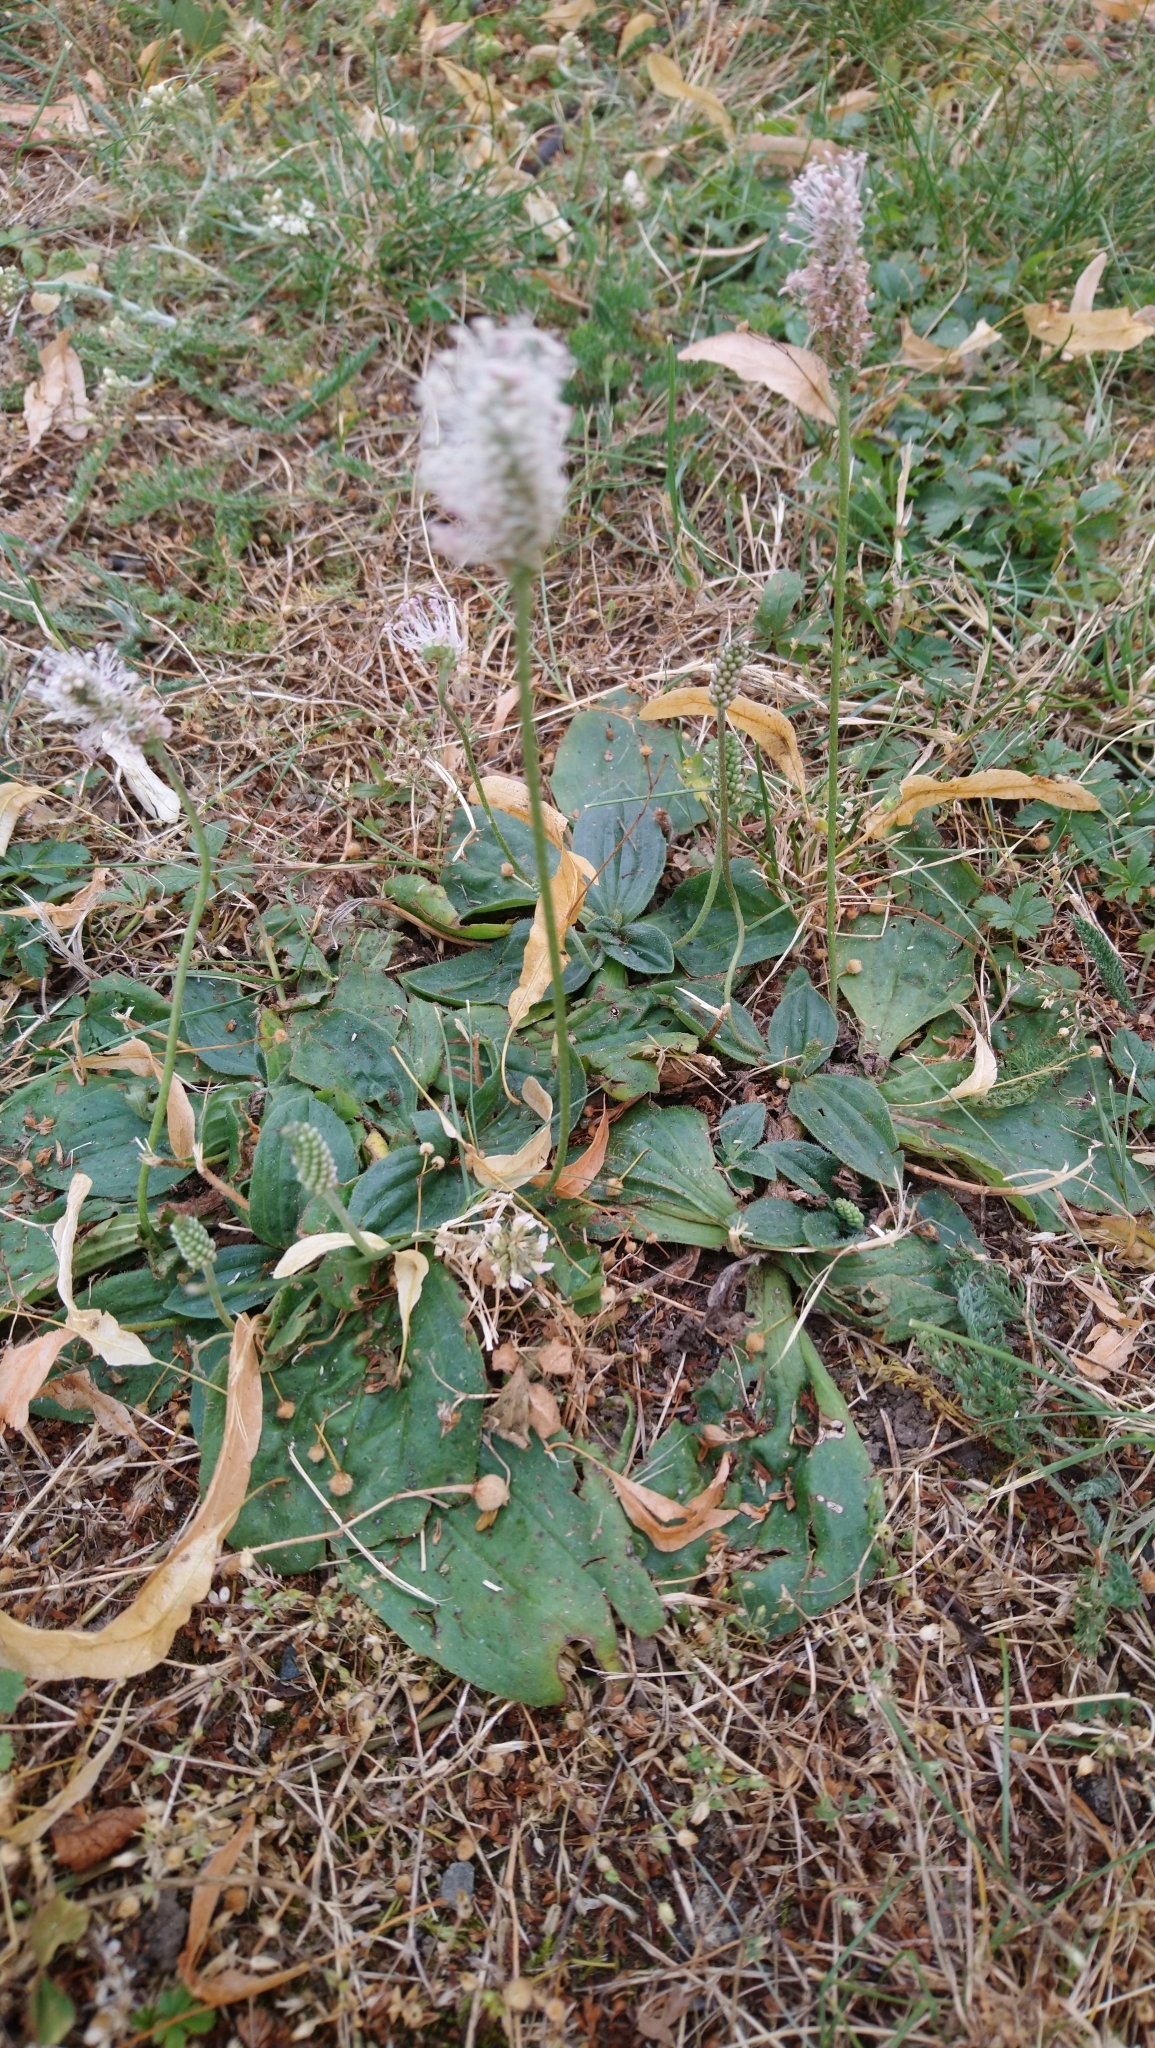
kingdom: Plantae
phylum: Tracheophyta
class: Magnoliopsida
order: Lamiales
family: Plantaginaceae
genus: Plantago
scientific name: Plantago media
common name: Hoary plantain
